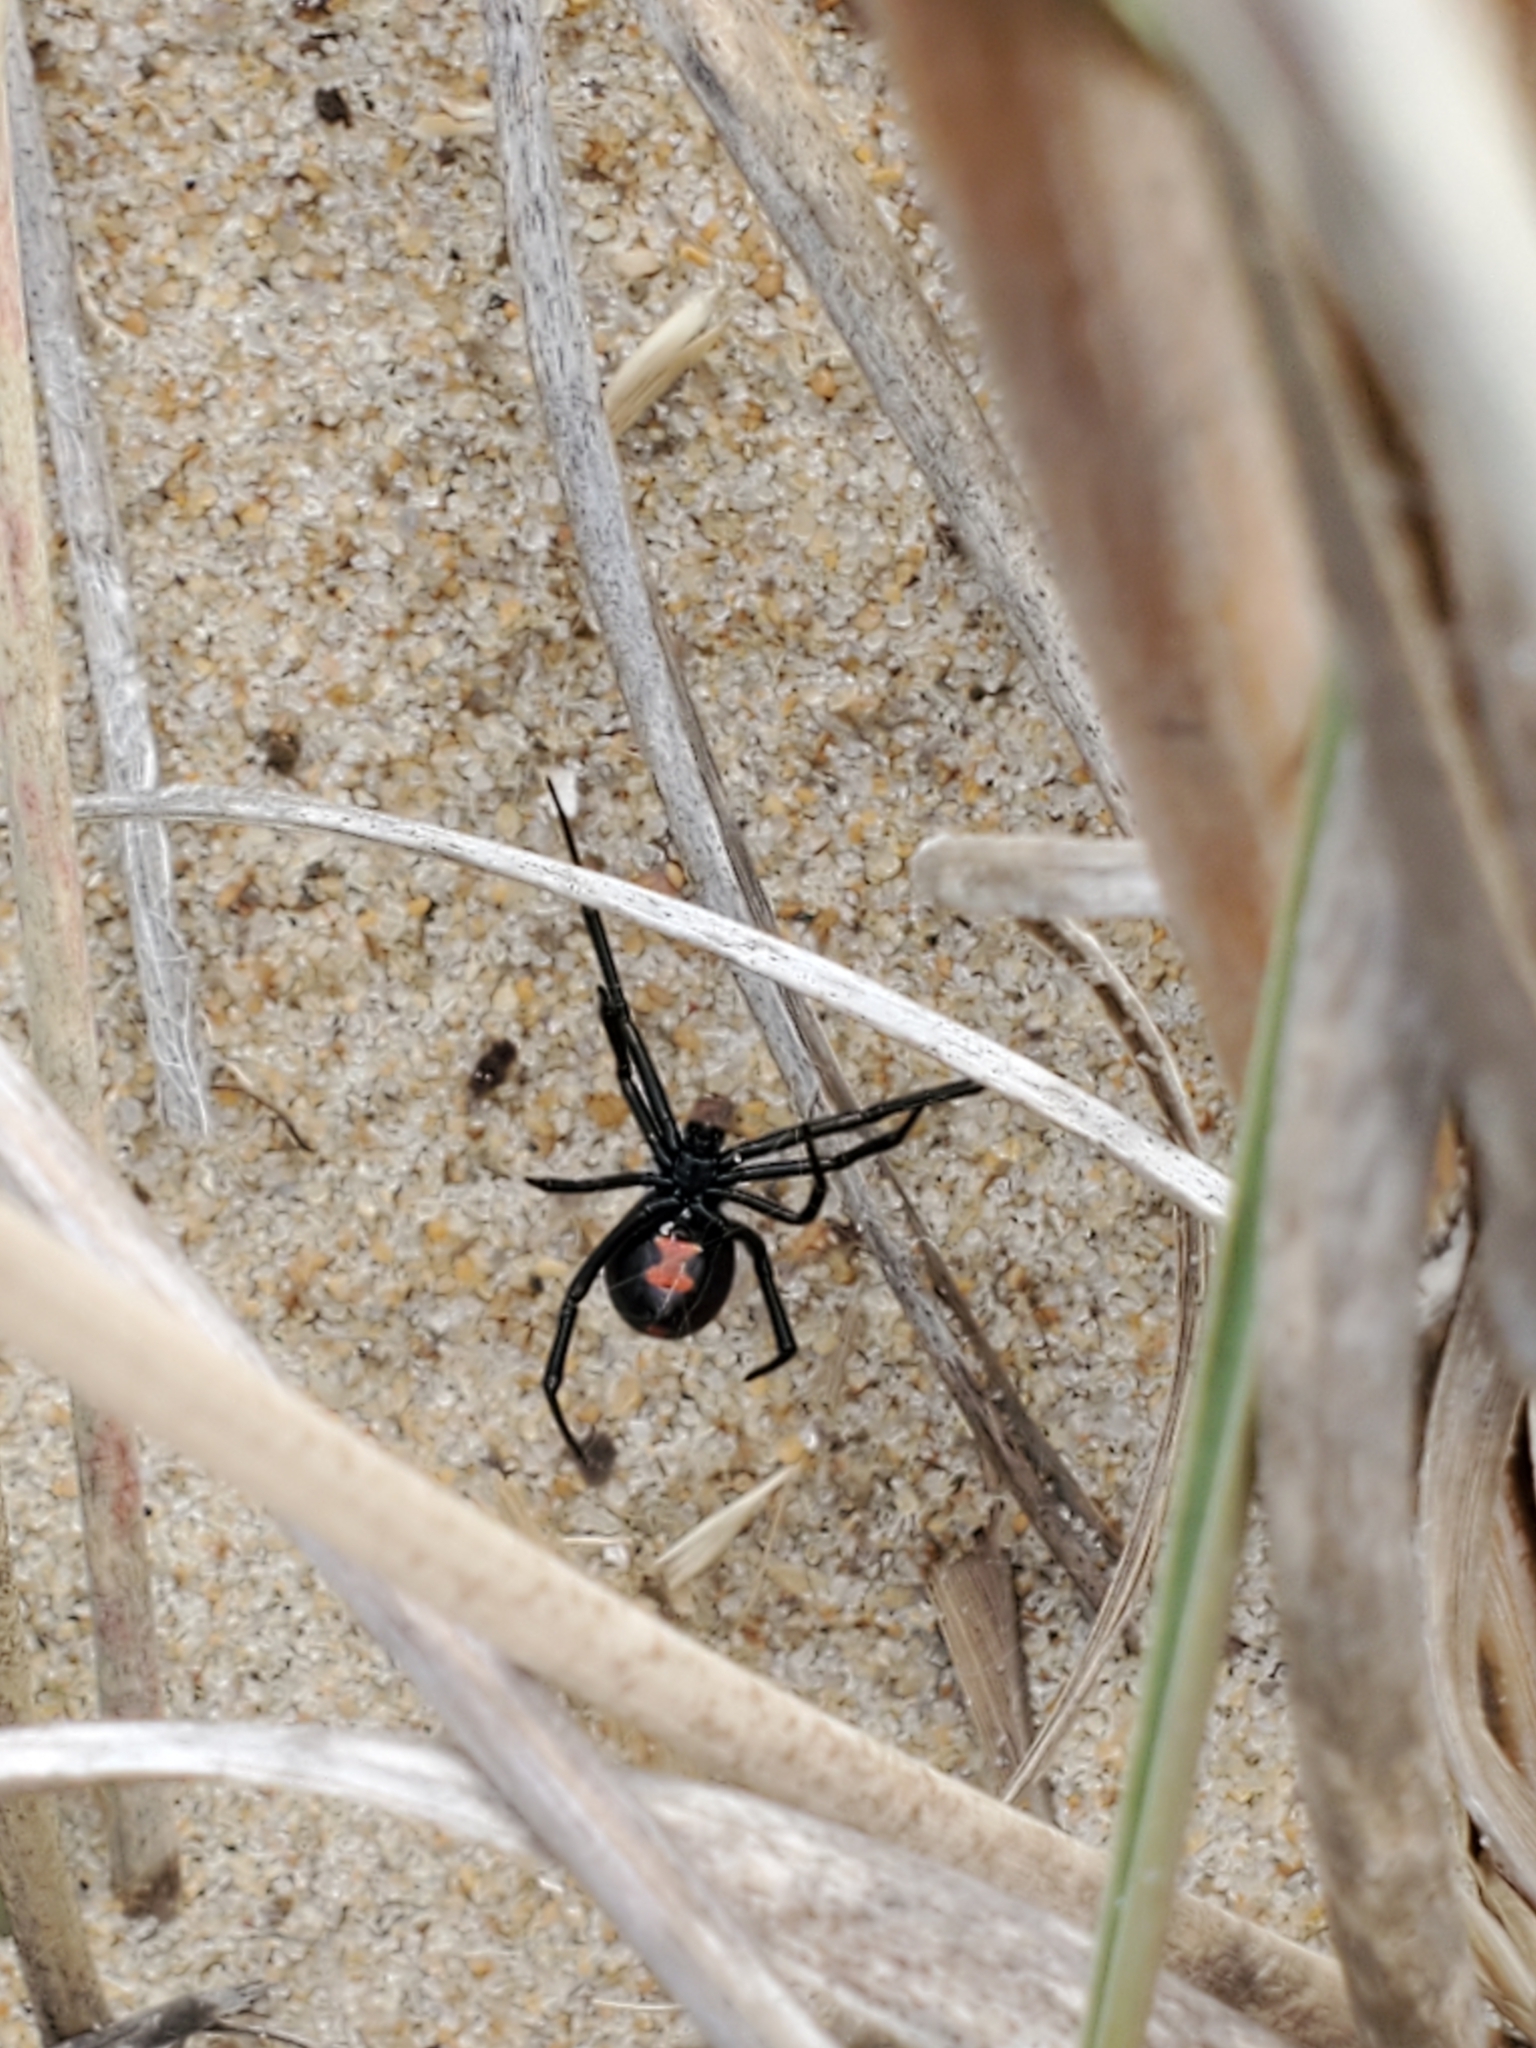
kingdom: Animalia
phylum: Arthropoda
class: Arachnida
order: Araneae
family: Theridiidae
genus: Latrodectus
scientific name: Latrodectus mactans
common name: Cobweb spiders
